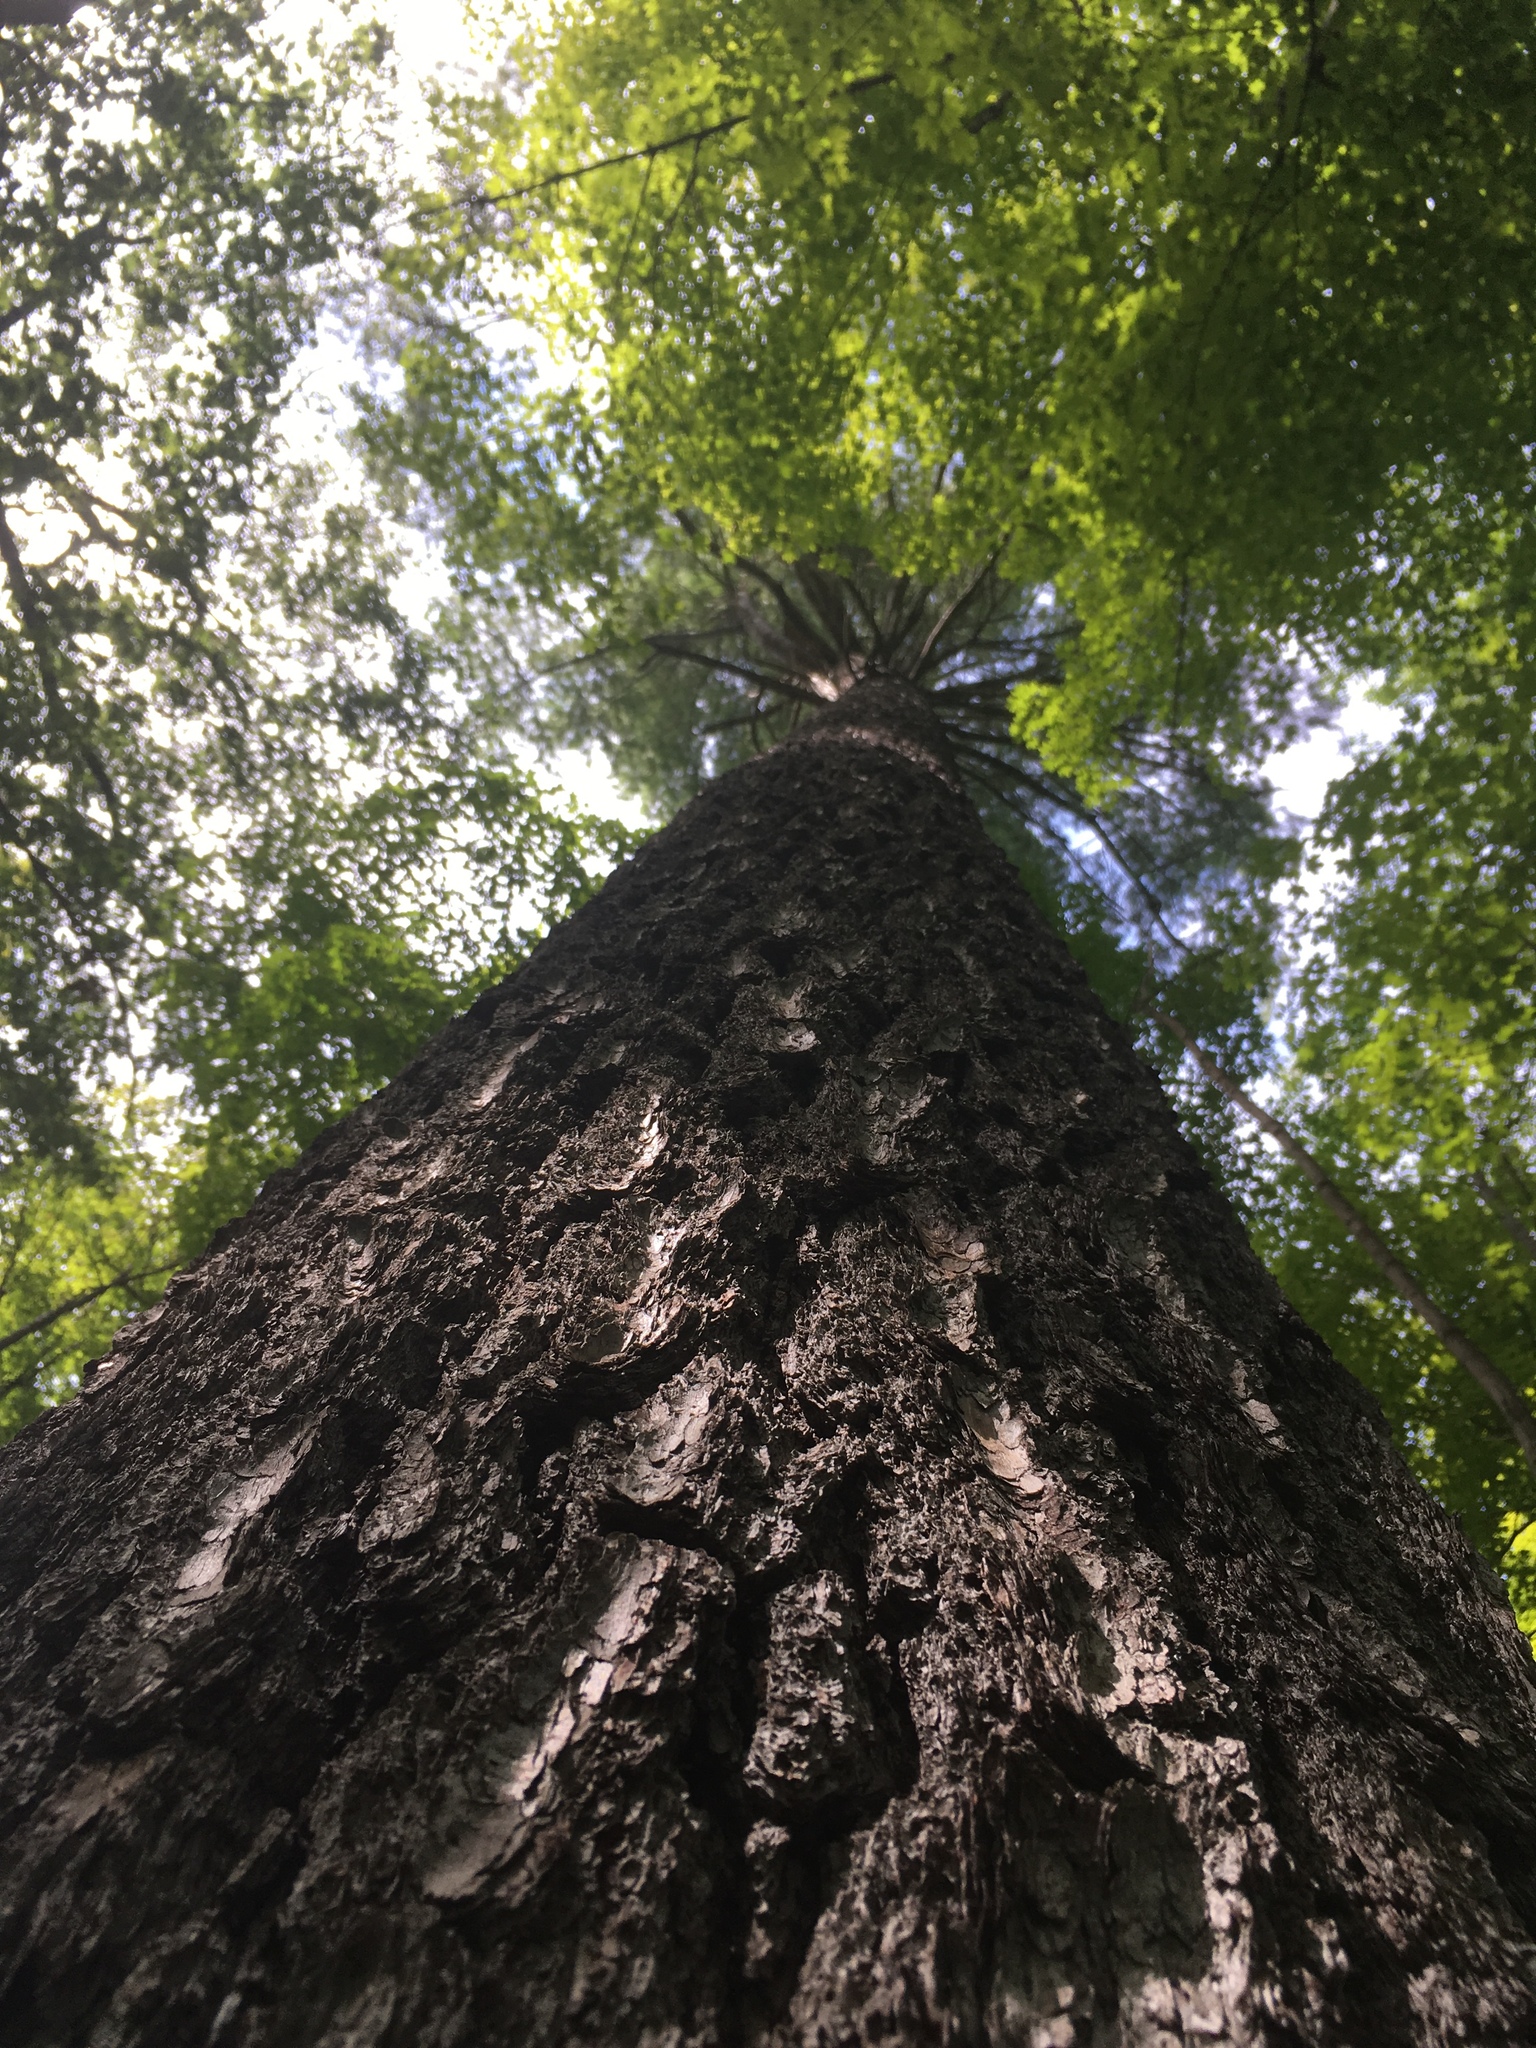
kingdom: Plantae
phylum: Tracheophyta
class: Pinopsida
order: Pinales
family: Pinaceae
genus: Pinus
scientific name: Pinus strobus
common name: Weymouth pine
